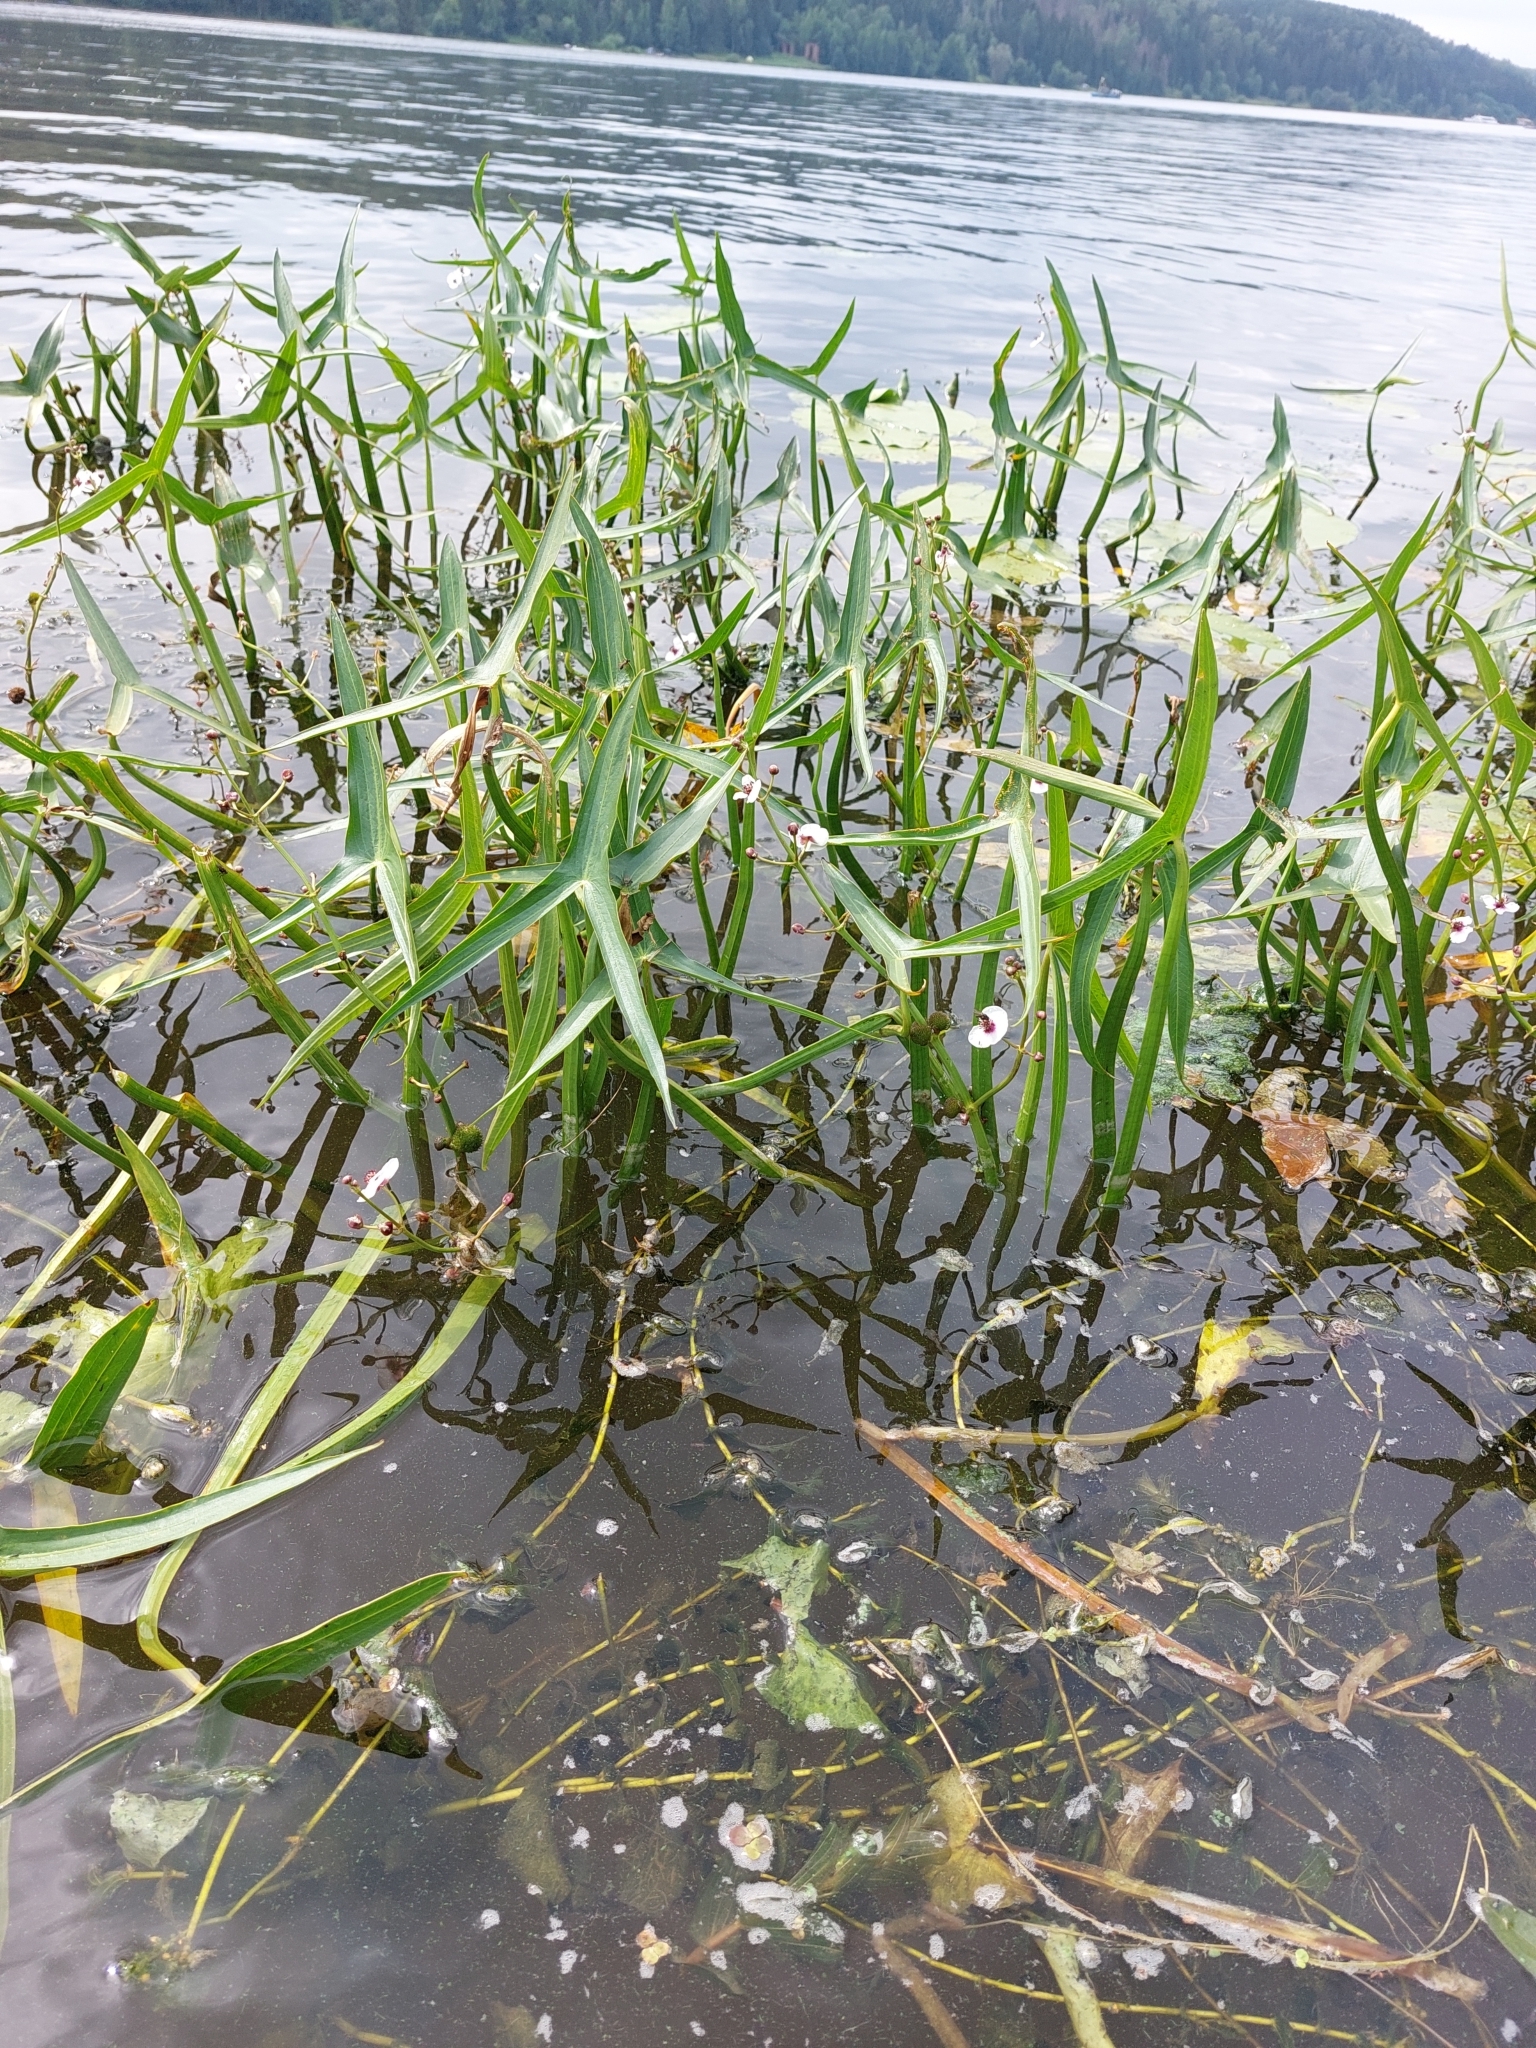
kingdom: Plantae
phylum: Tracheophyta
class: Liliopsida
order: Alismatales
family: Alismataceae
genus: Sagittaria
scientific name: Sagittaria sagittifolia
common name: Arrowhead
